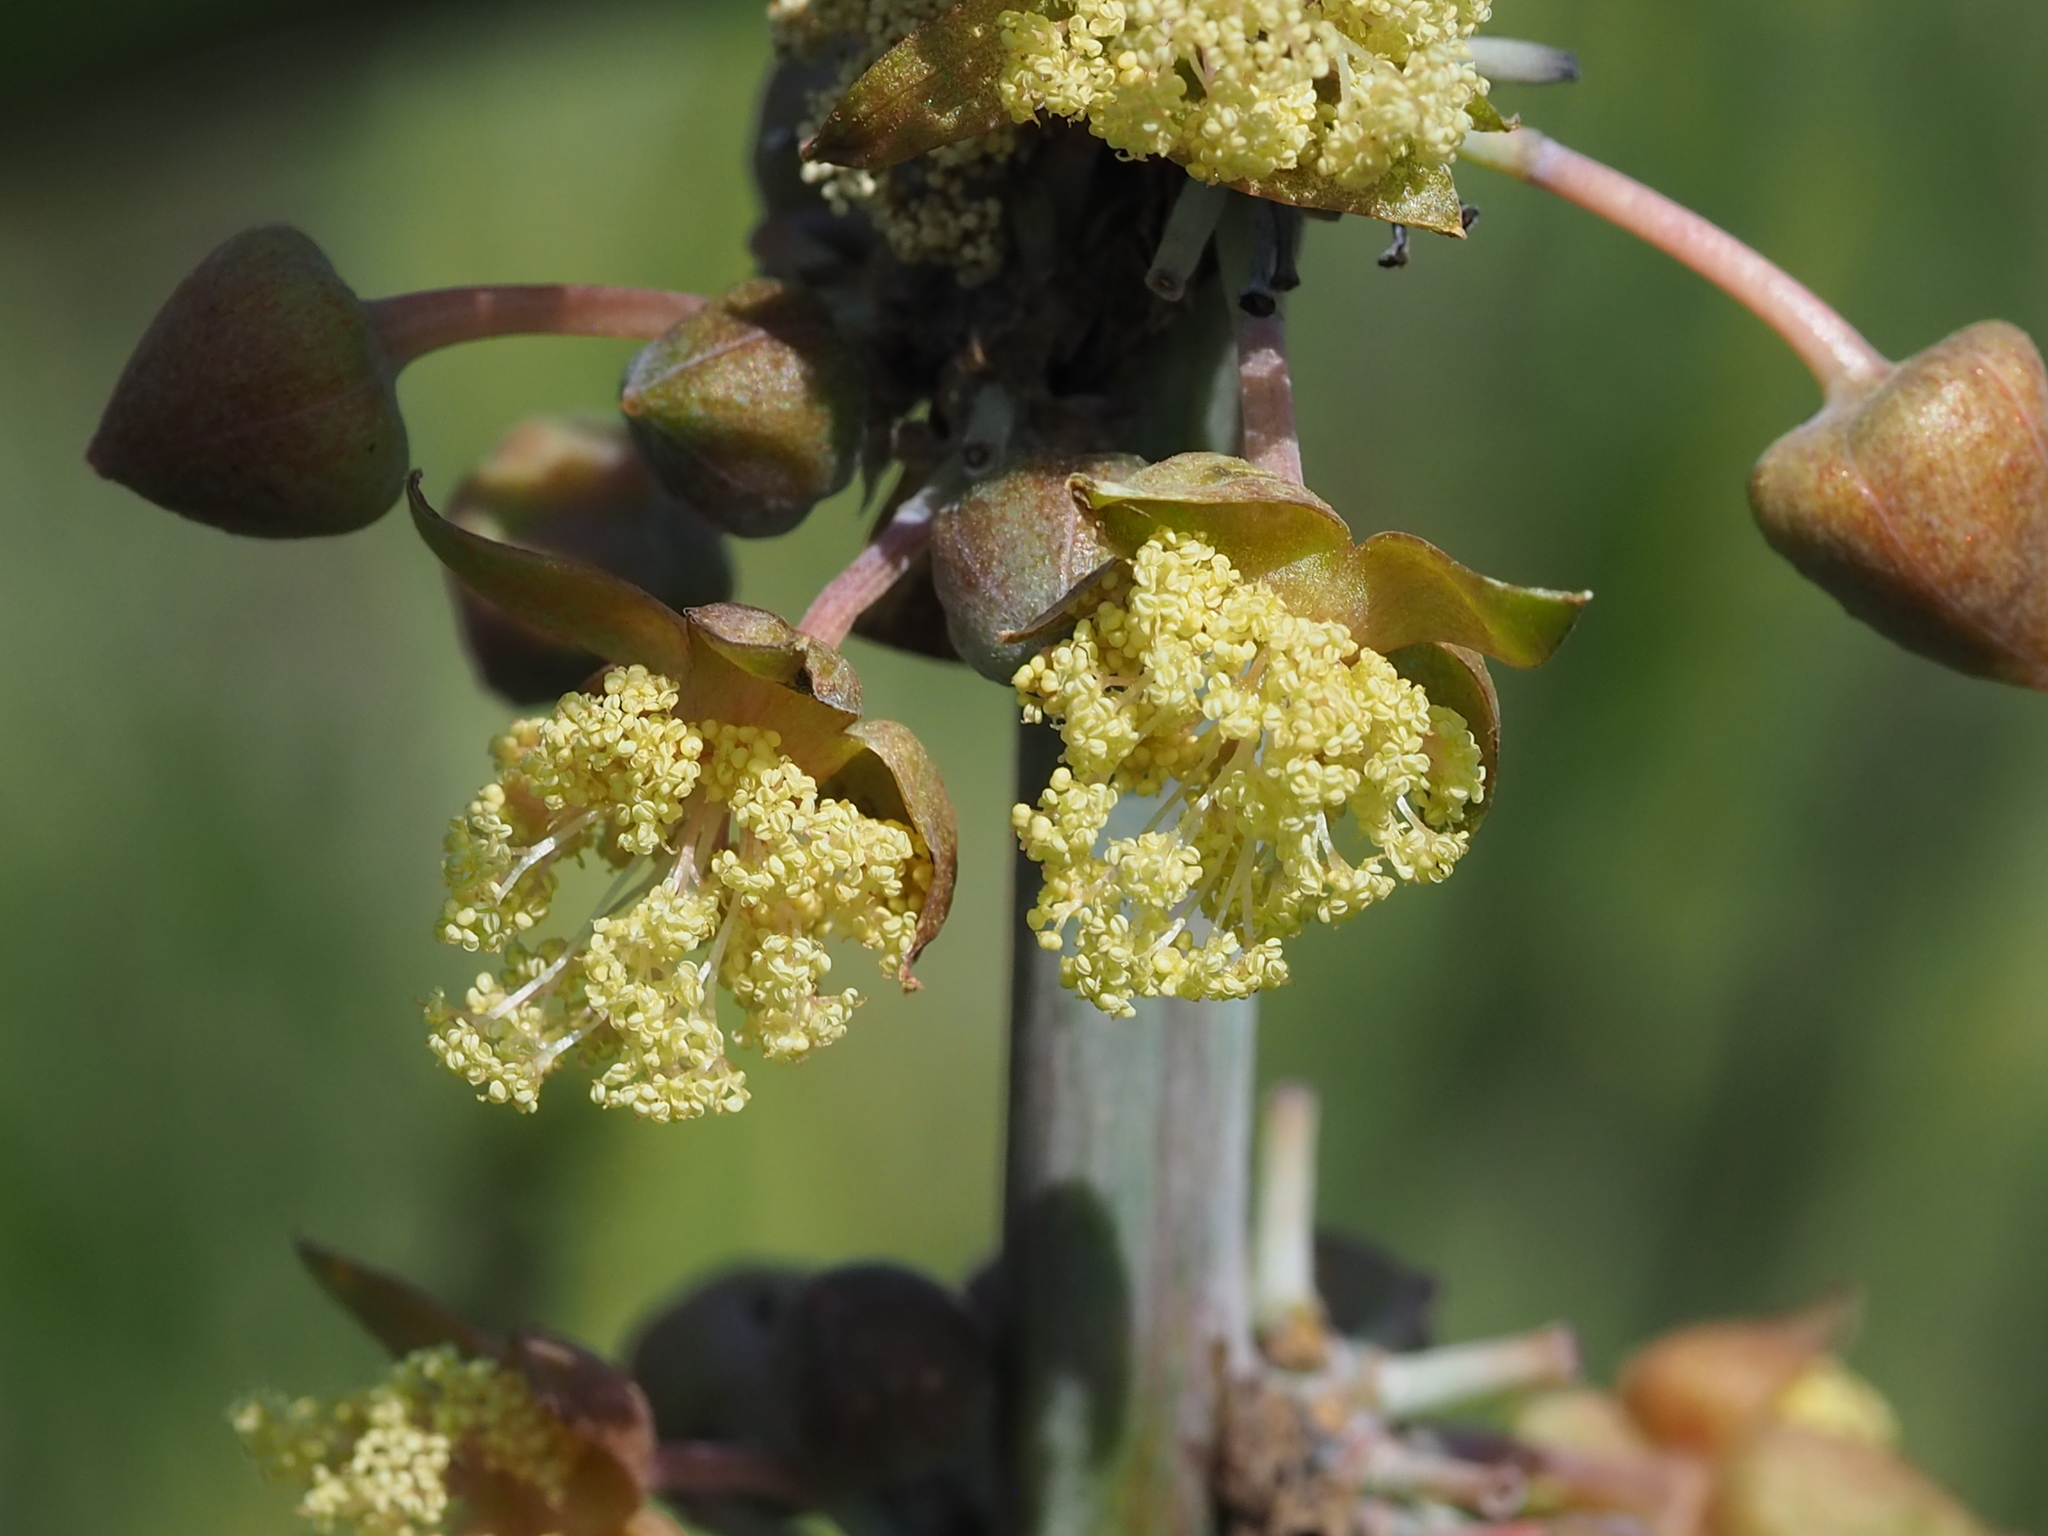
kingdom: Plantae
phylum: Tracheophyta
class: Magnoliopsida
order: Malpighiales
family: Euphorbiaceae
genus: Ricinus
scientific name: Ricinus communis
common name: Castor-oil-plant
